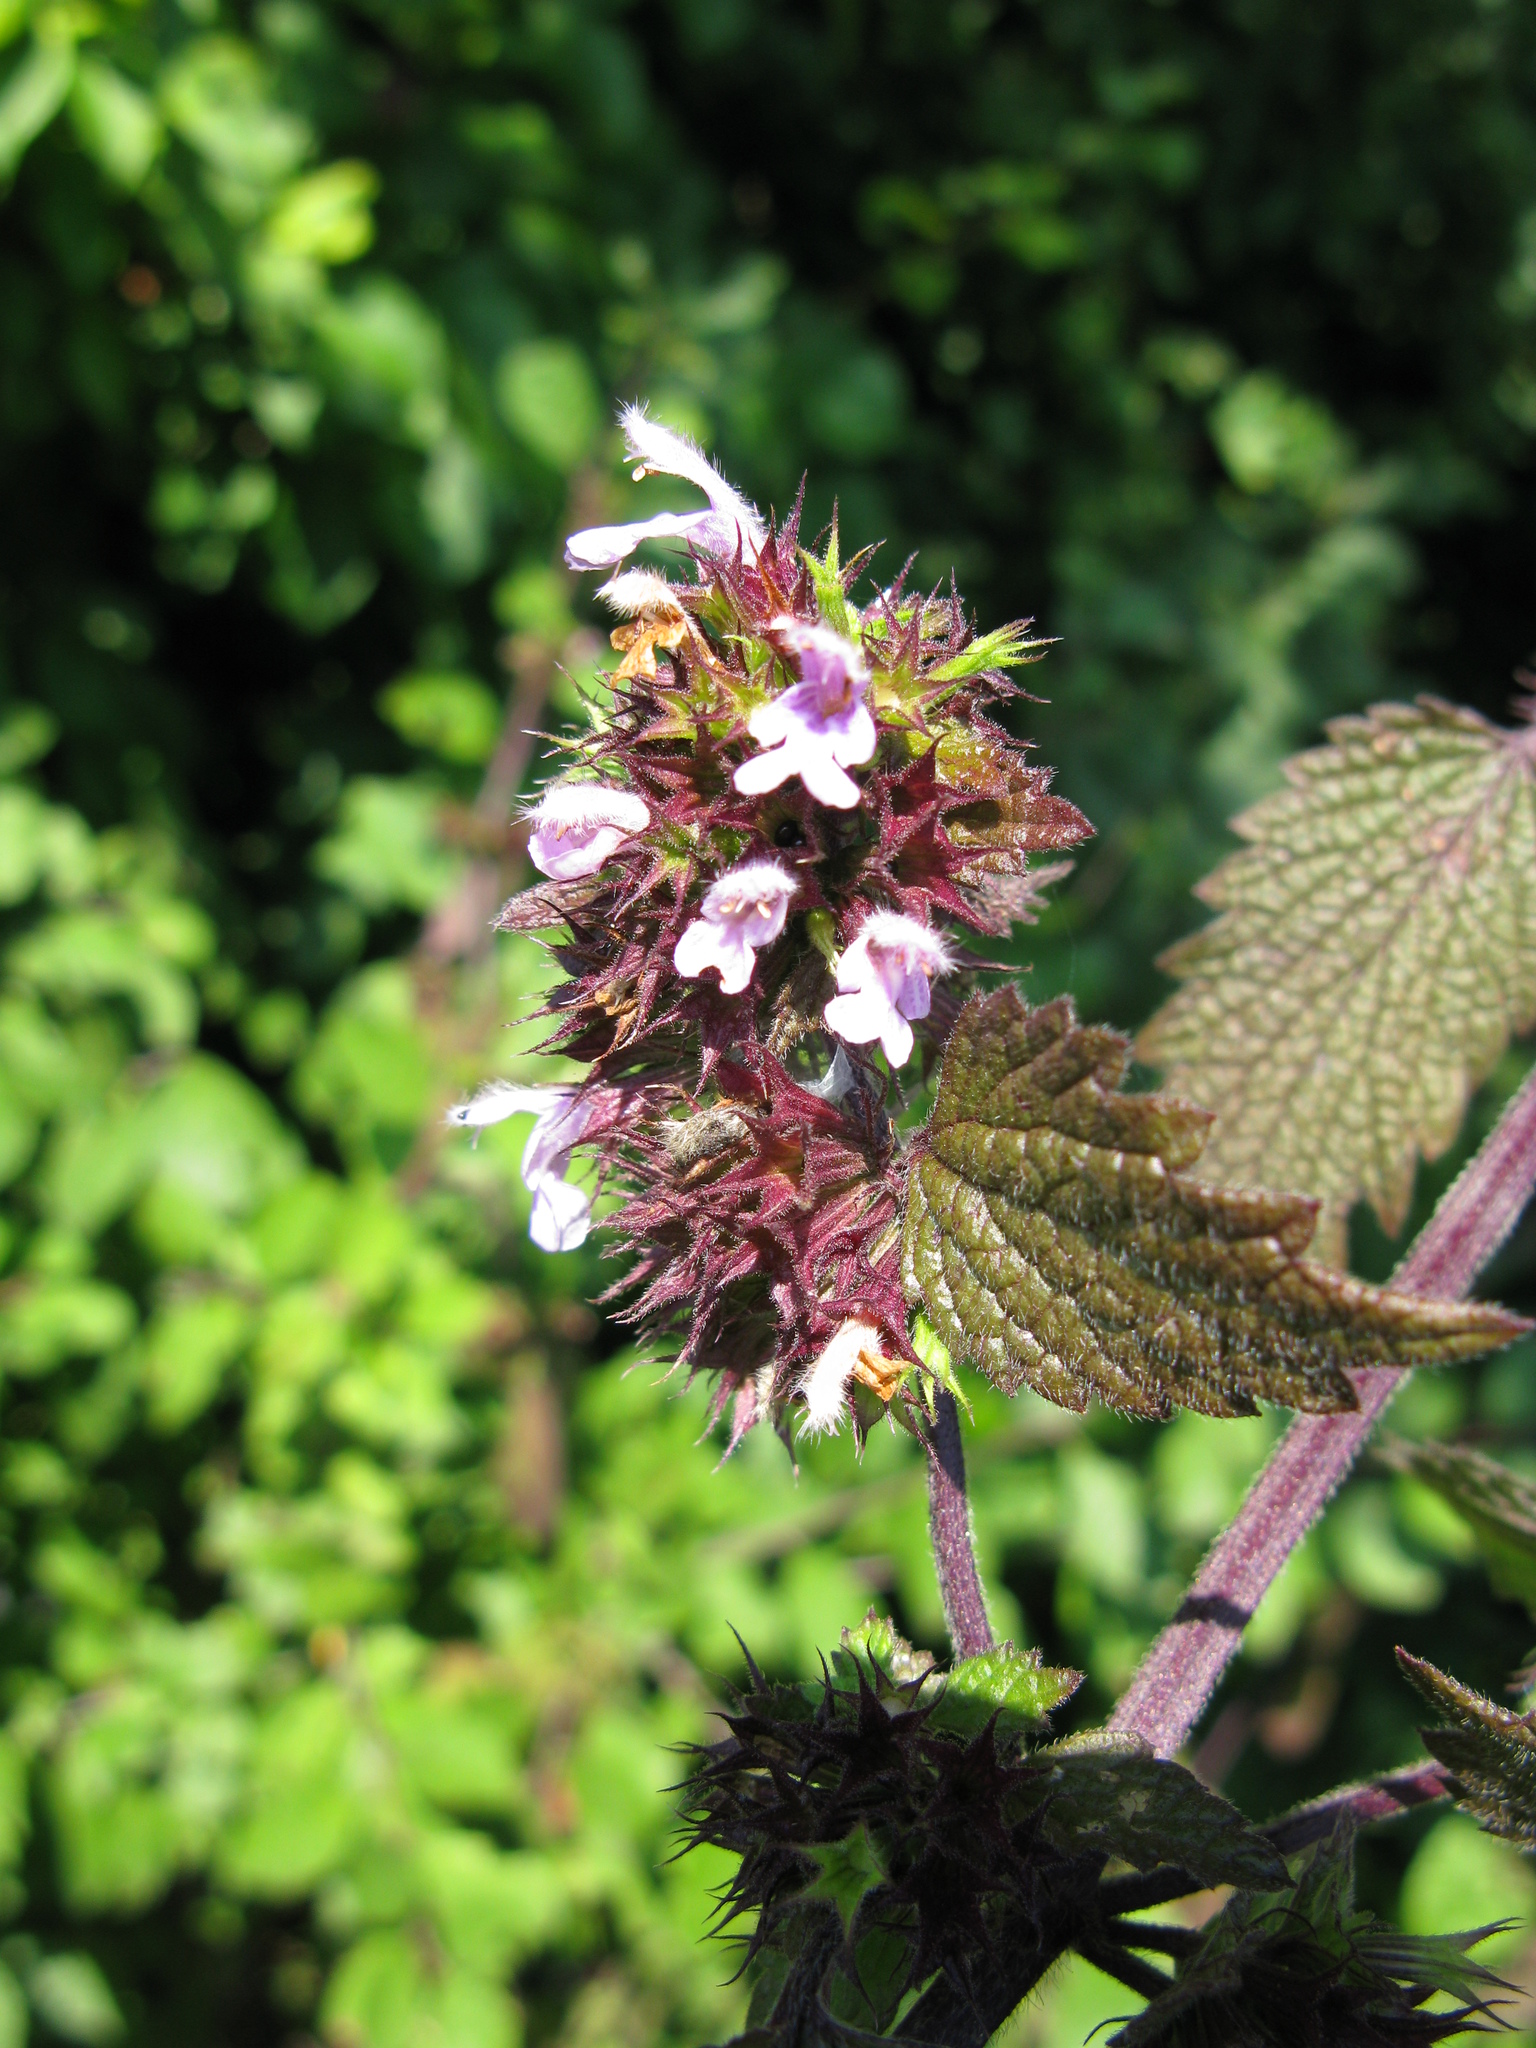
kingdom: Plantae
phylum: Tracheophyta
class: Magnoliopsida
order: Lamiales
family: Lamiaceae
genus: Ballota
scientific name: Ballota nigra
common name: Black horehound
